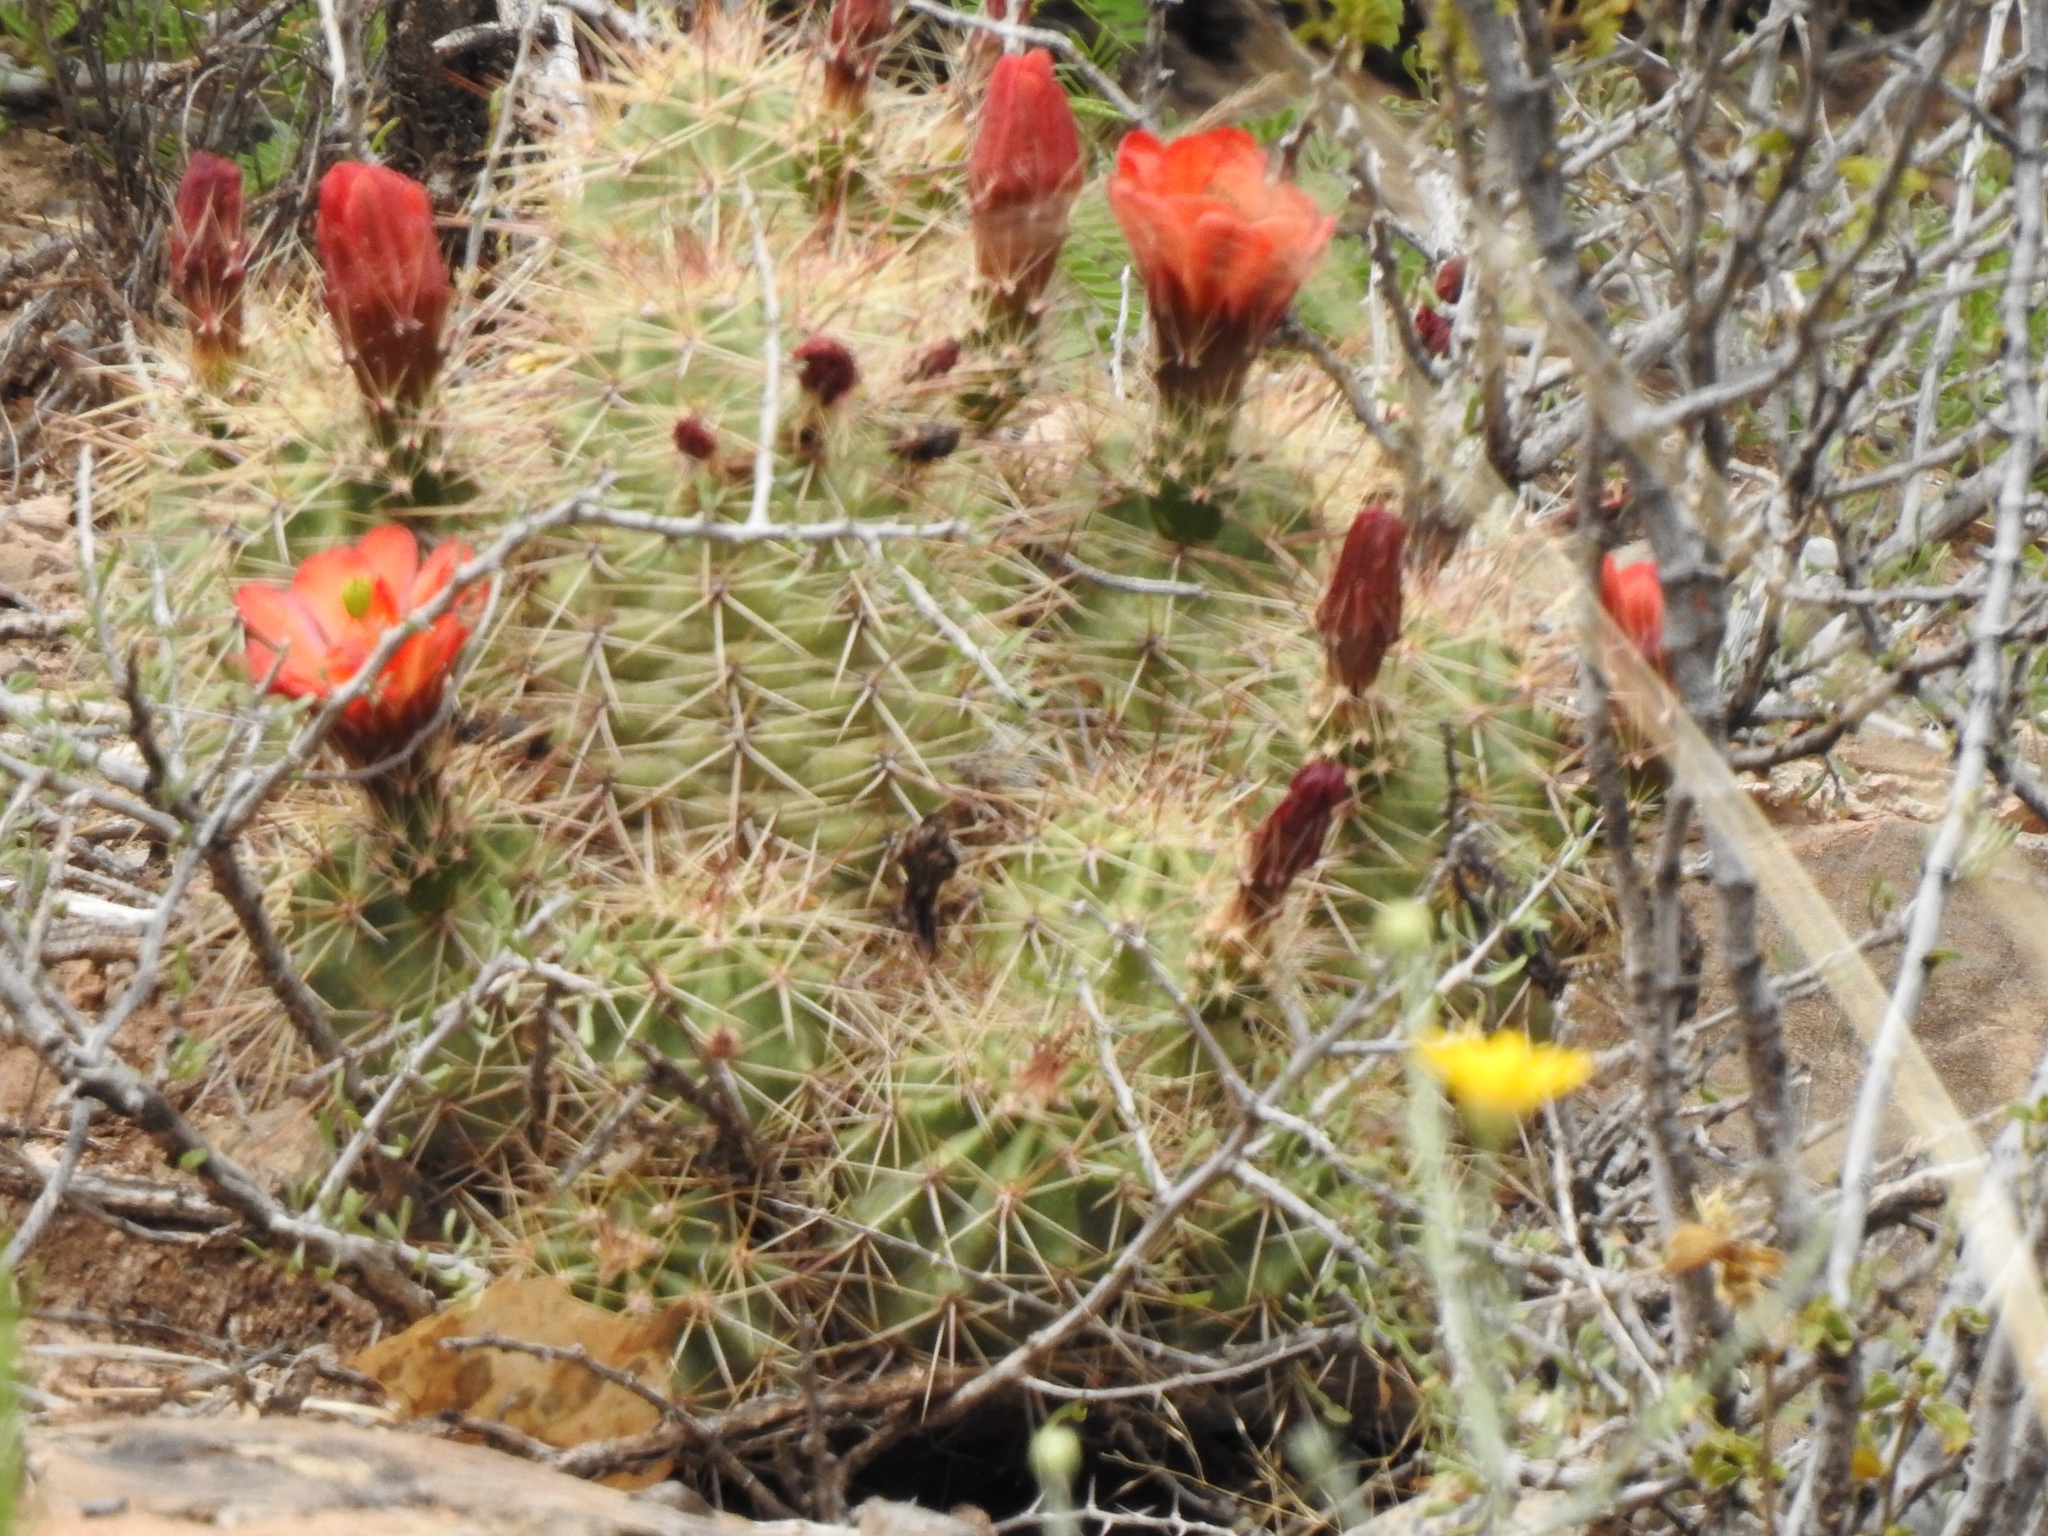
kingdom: Plantae
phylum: Tracheophyta
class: Magnoliopsida
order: Caryophyllales
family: Cactaceae
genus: Echinocereus
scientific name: Echinocereus coccineus
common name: Scarlet hedgehog cactus
